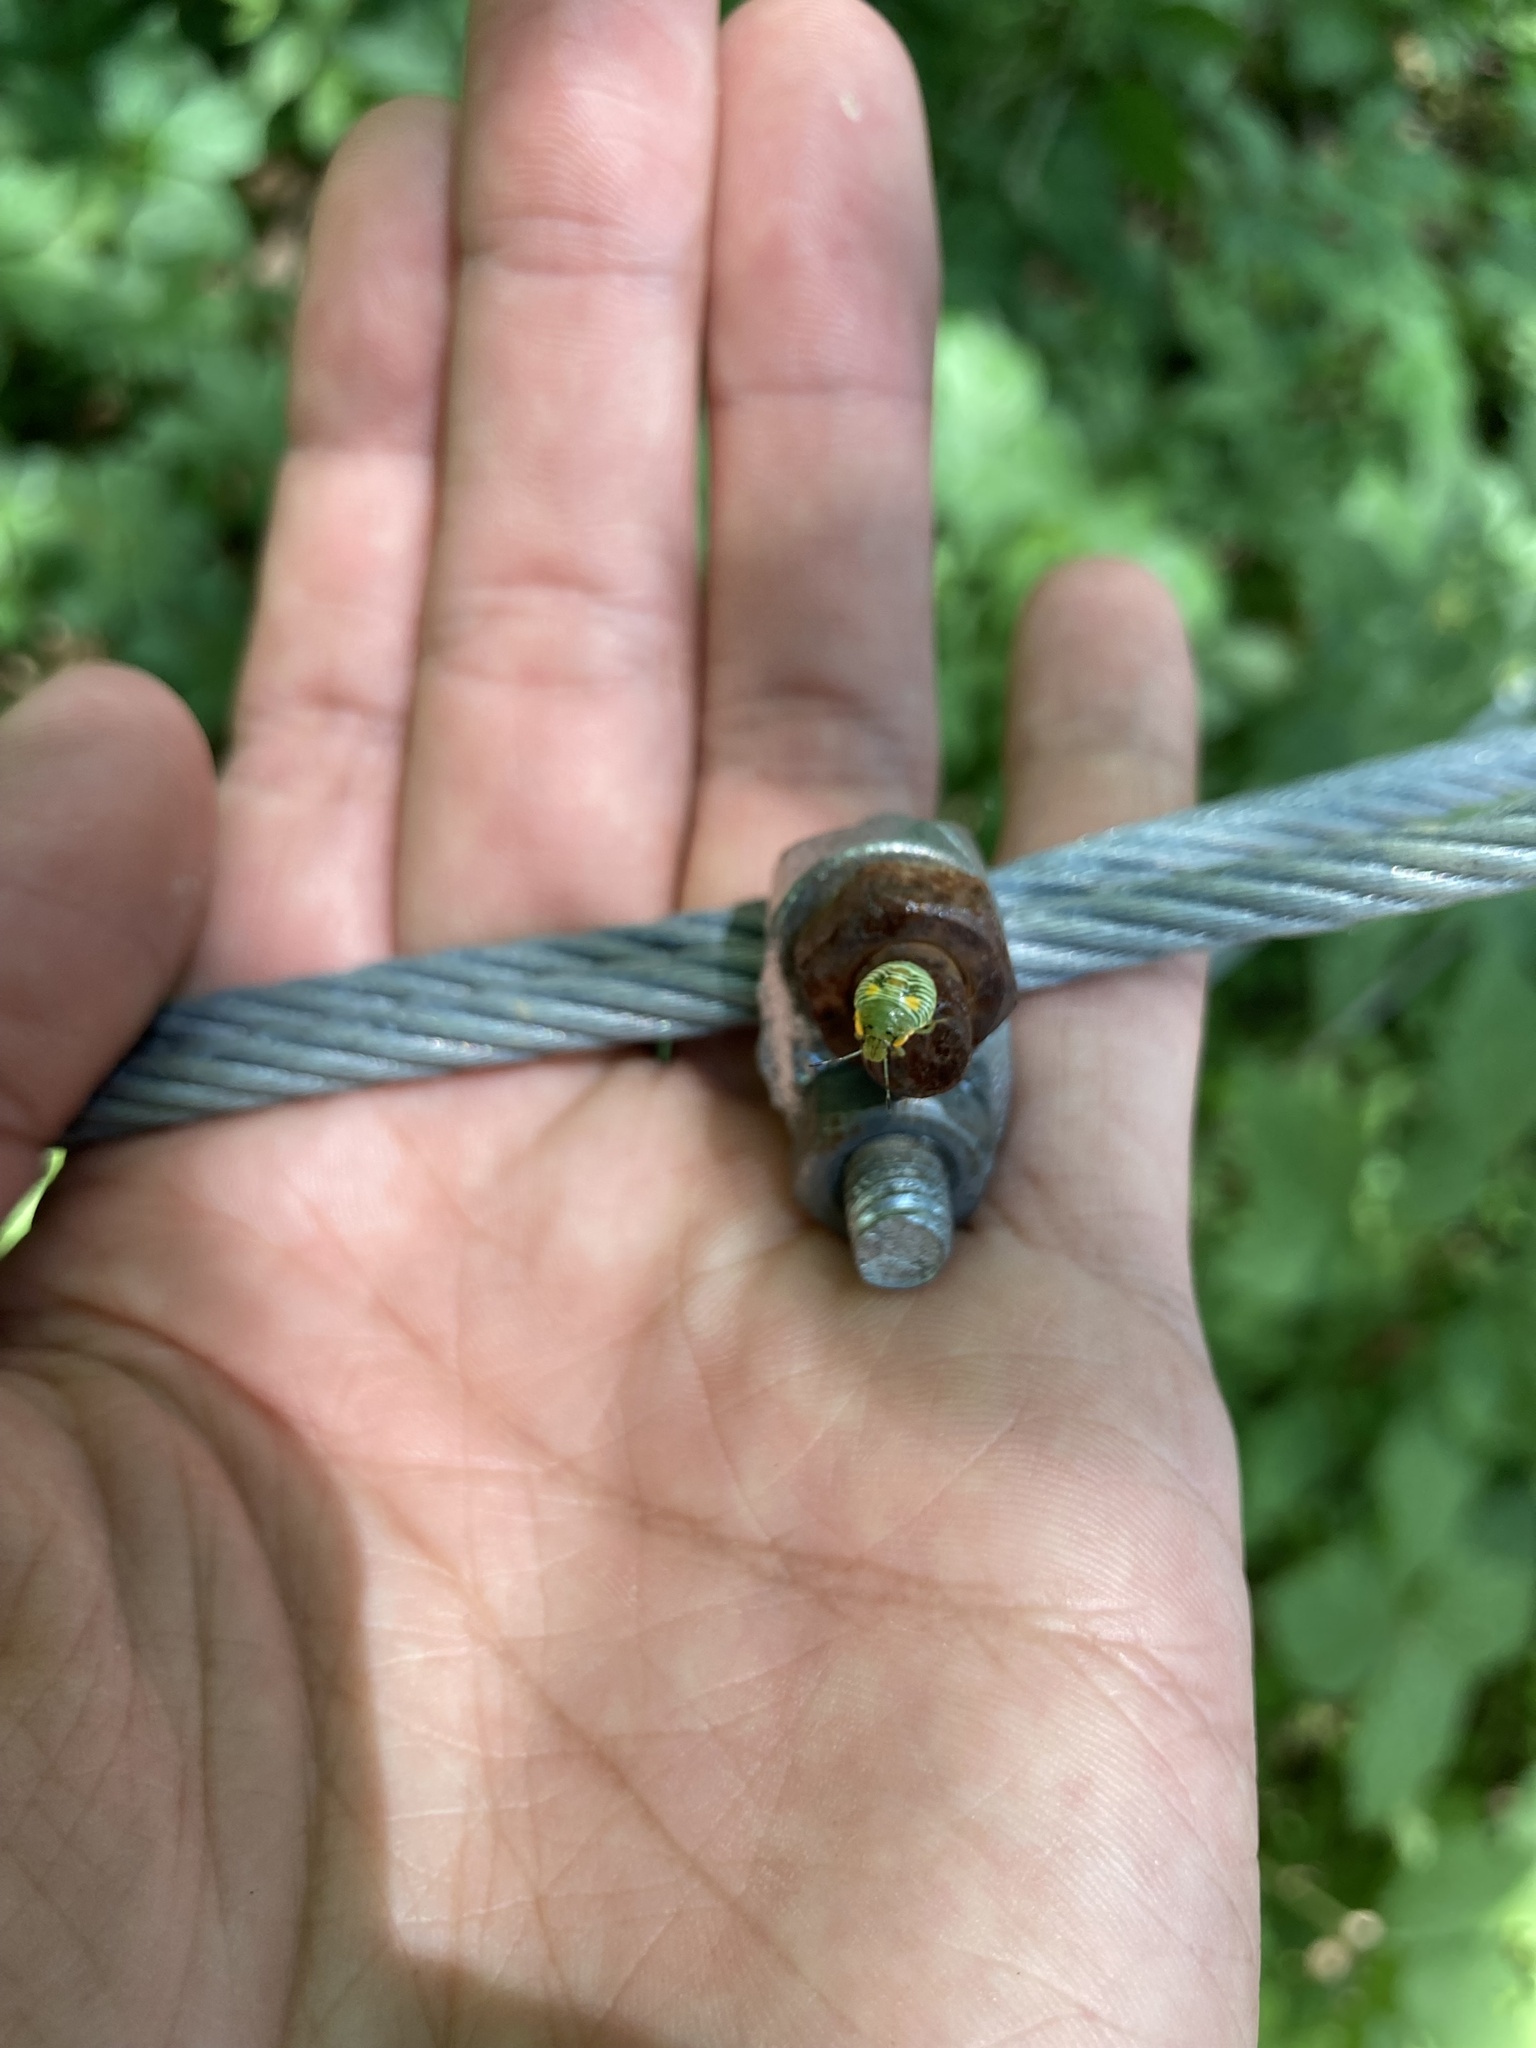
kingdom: Animalia
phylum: Arthropoda
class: Insecta
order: Hemiptera
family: Pentatomidae
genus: Chinavia
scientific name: Chinavia hilaris
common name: Green stink bug
